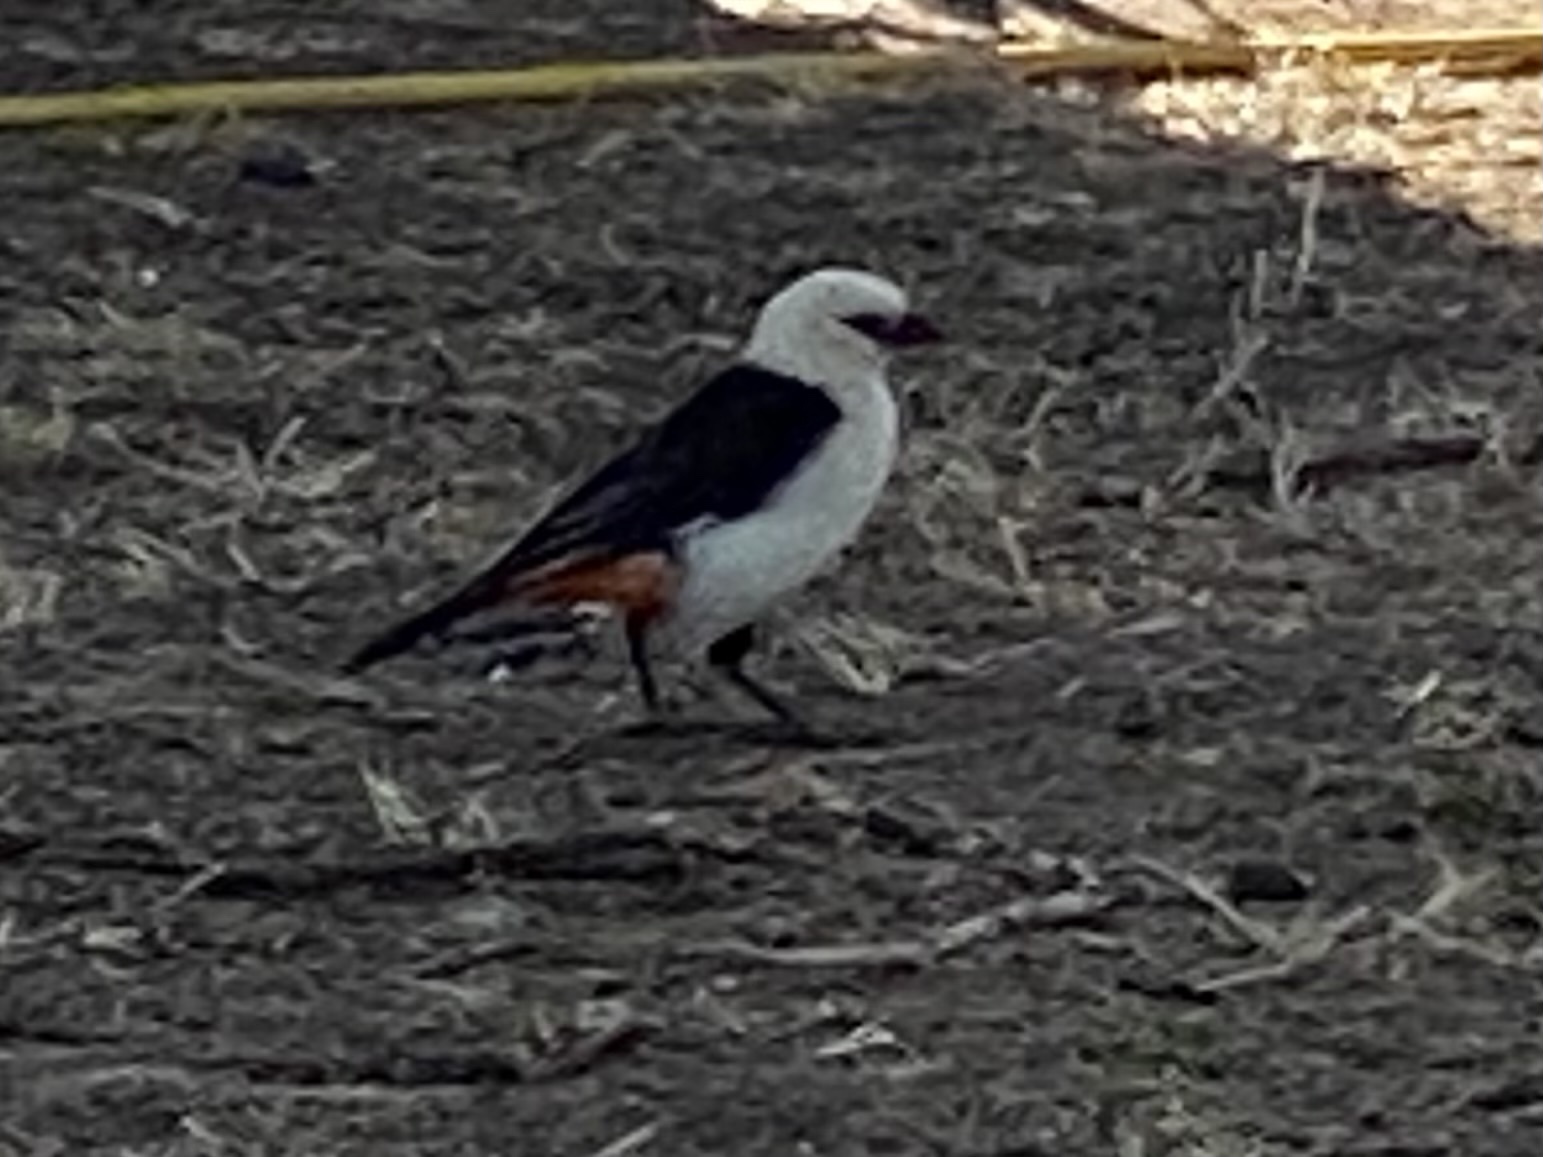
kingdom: Animalia
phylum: Chordata
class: Aves
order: Passeriformes
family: Ploceidae
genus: Dinemellia
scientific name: Dinemellia dinemelli
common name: White-headed buffalo weaver
